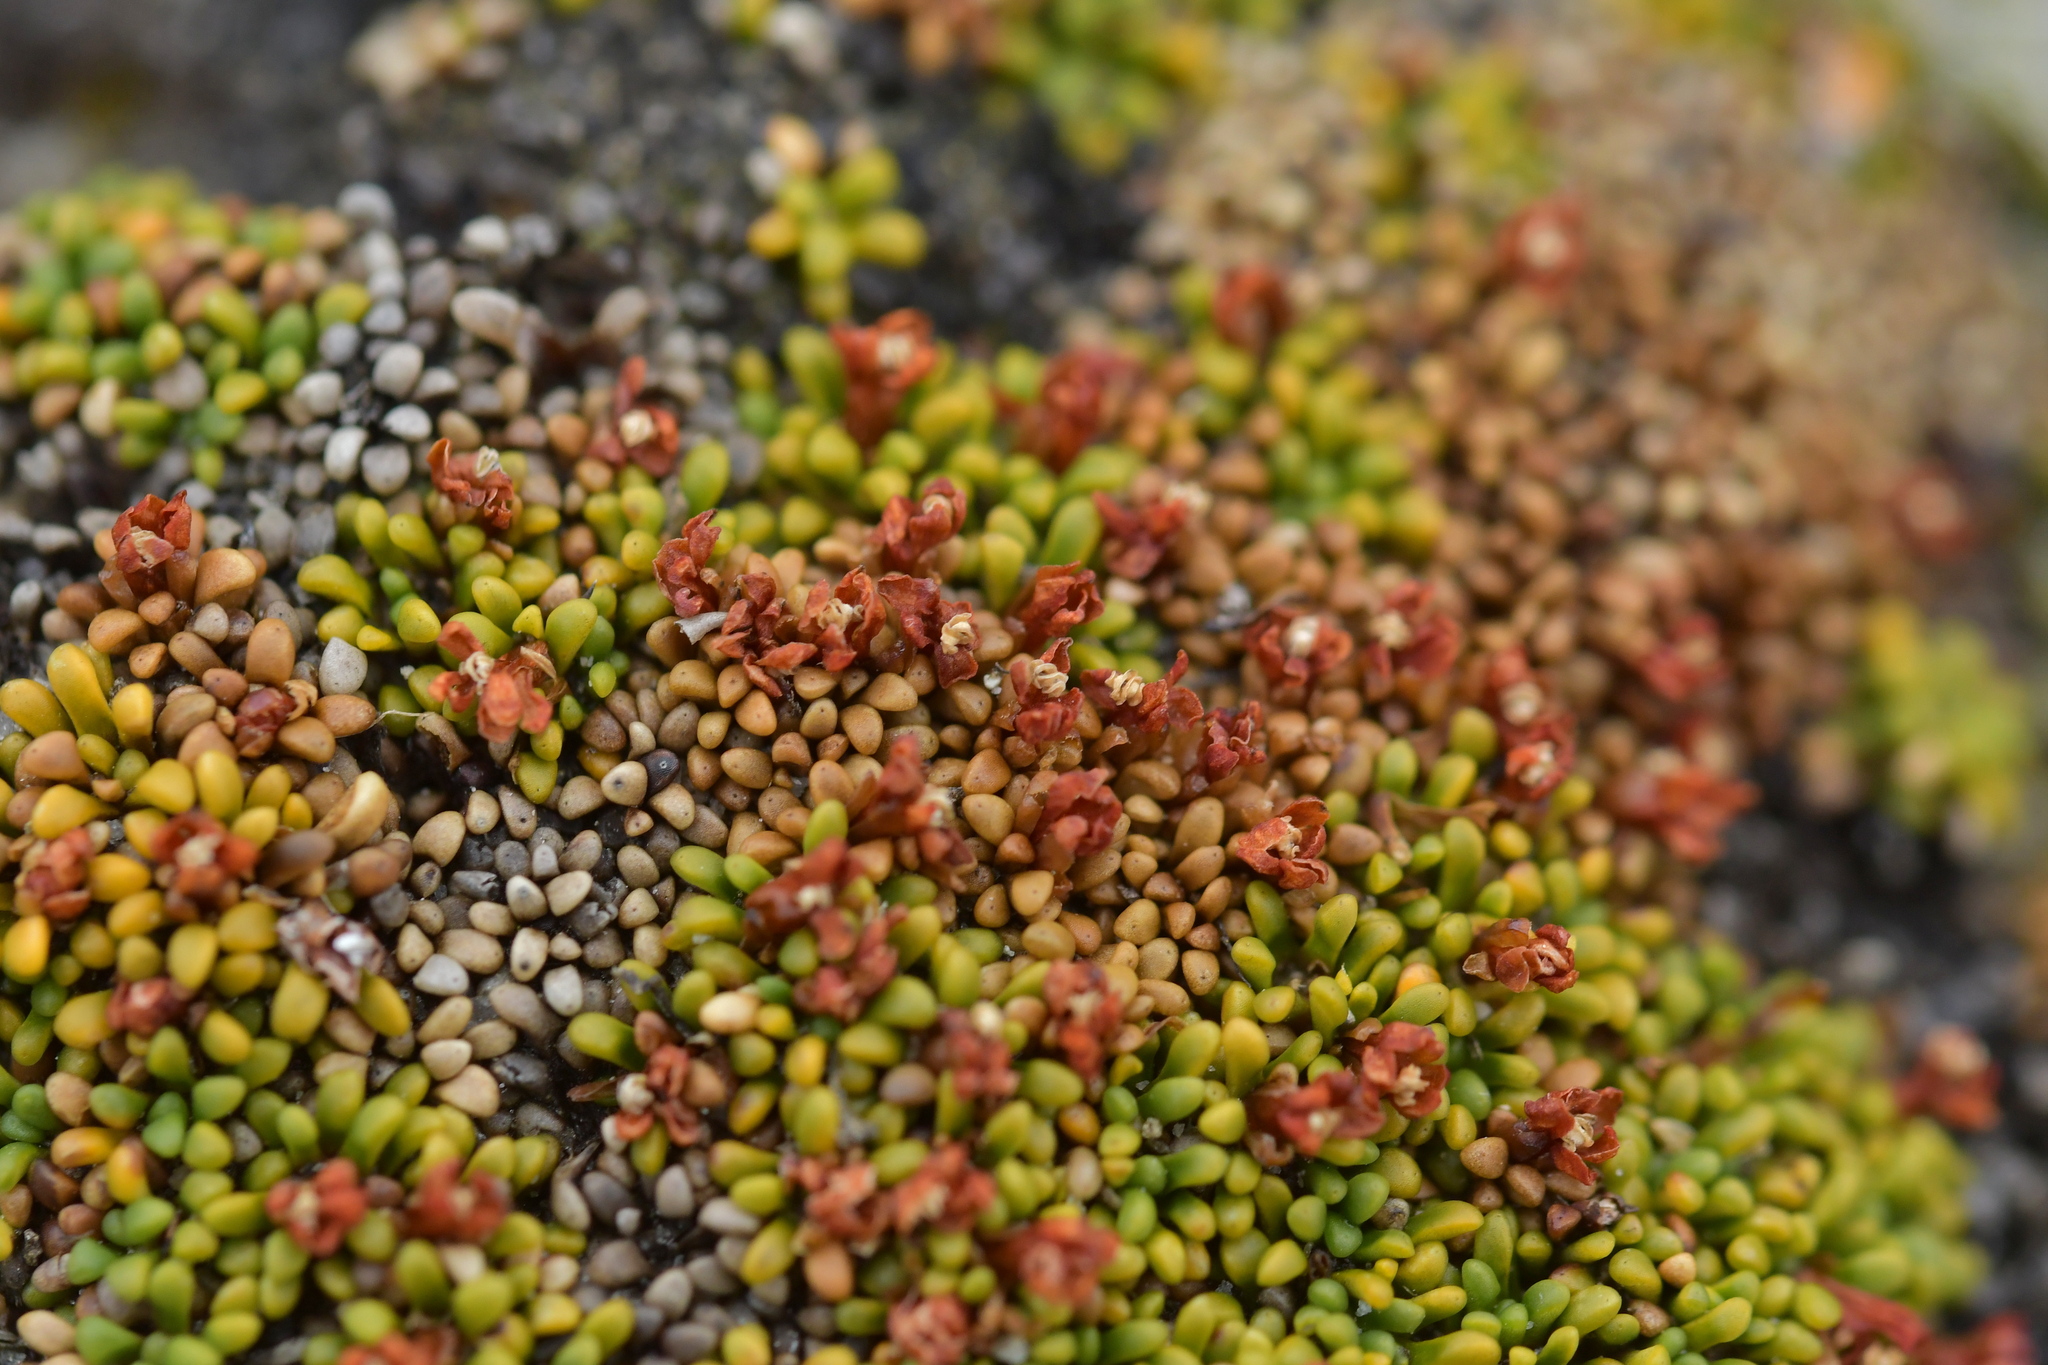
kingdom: Plantae
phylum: Tracheophyta
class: Magnoliopsida
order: Asterales
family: Stylidiaceae
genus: Phyllachne
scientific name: Phyllachne rubra
